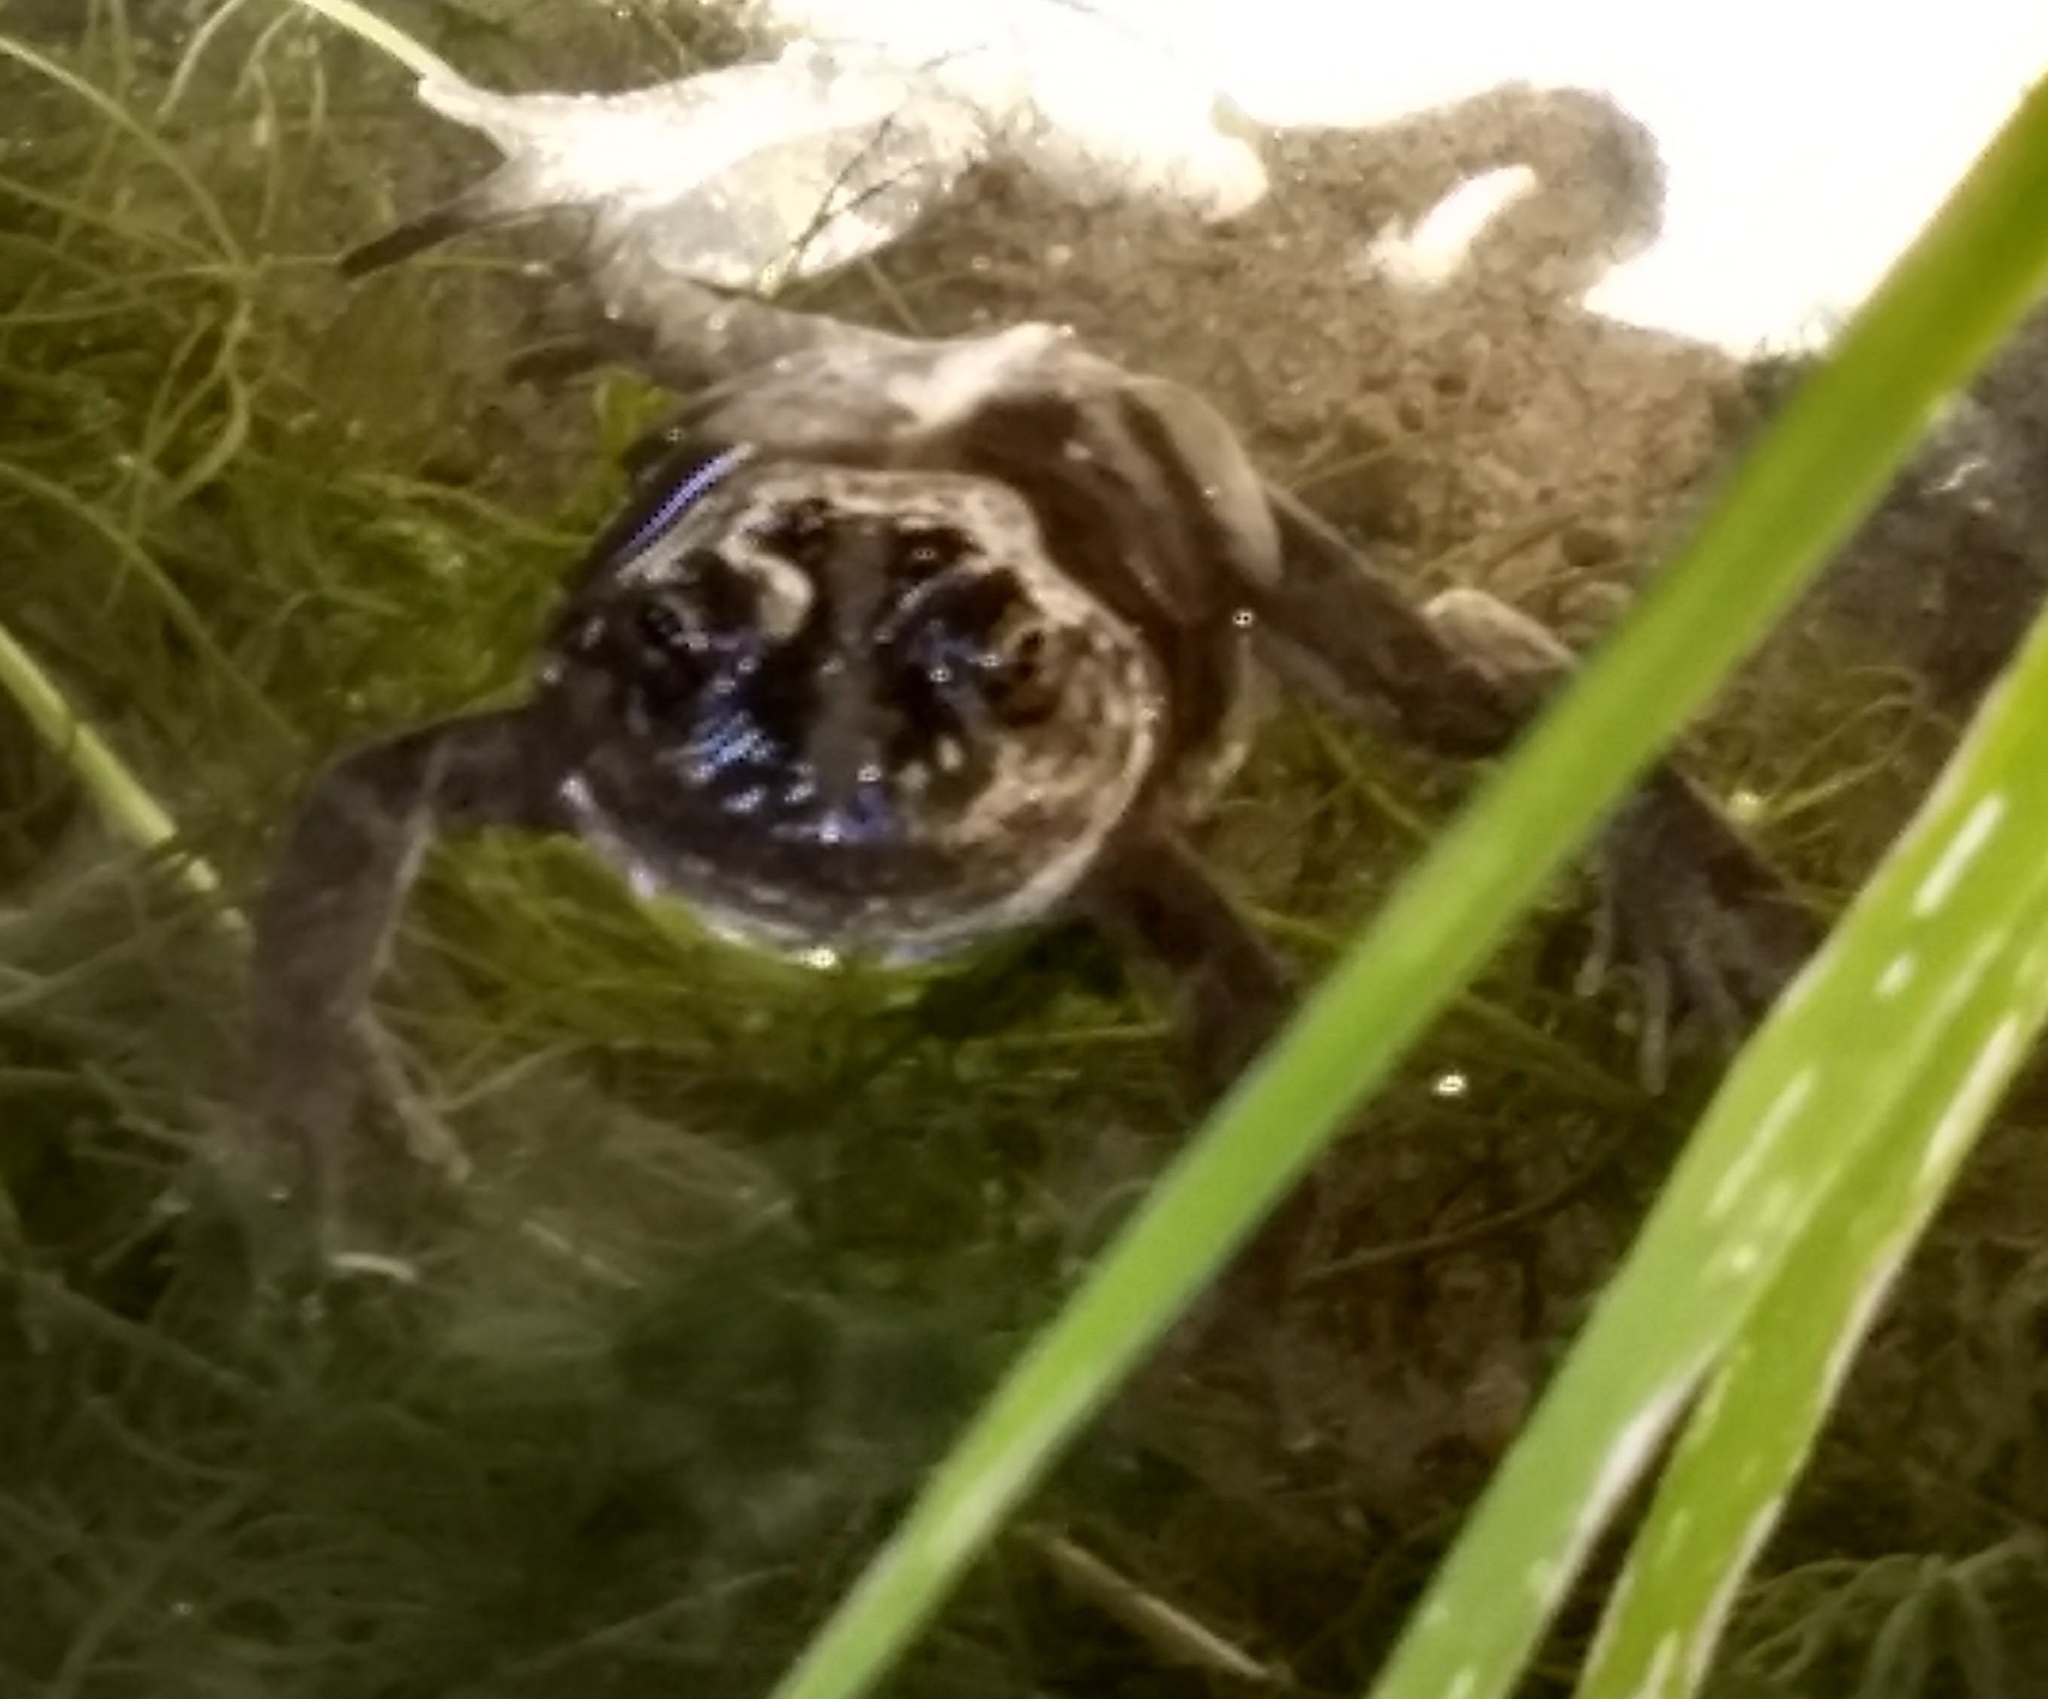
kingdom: Animalia
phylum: Chordata
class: Amphibia
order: Anura
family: Leptodactylidae
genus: Pleurodema
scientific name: Pleurodema bufoninum
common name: Large four-eyed frog
